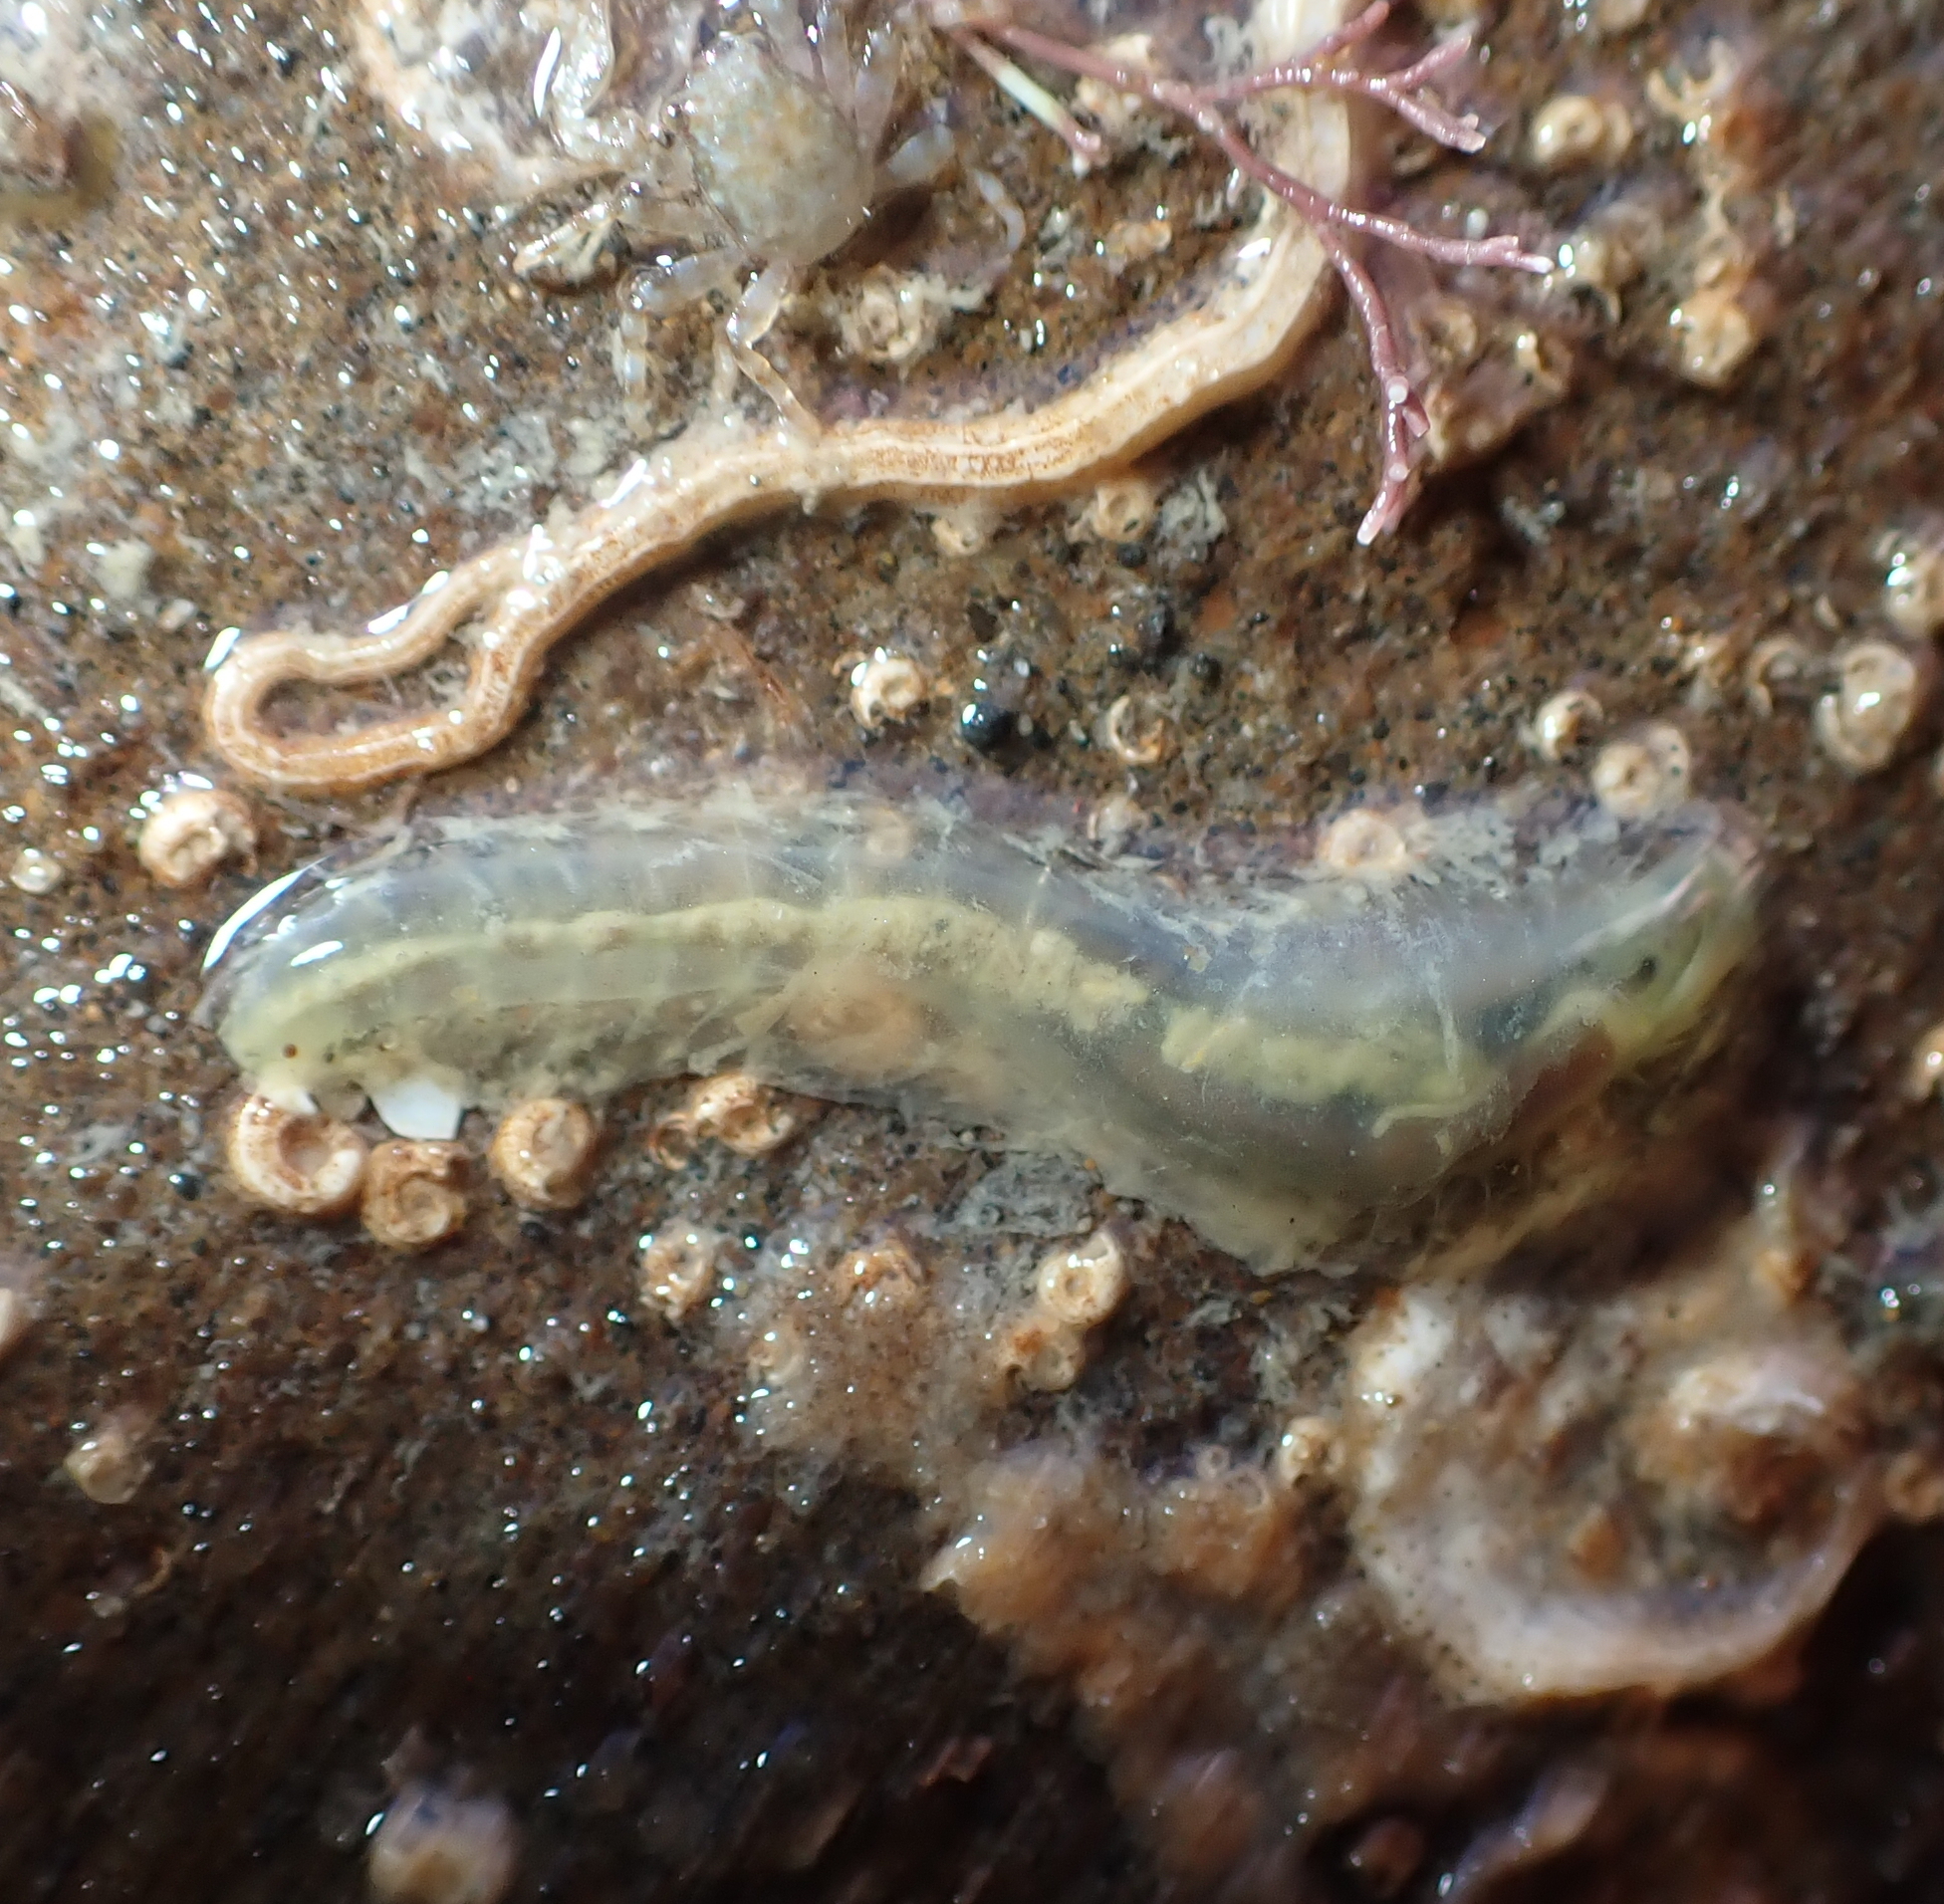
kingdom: Animalia
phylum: Annelida
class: Polychaeta
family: Flabelligeridae
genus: Flabelligera
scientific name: Flabelligera bicolor
